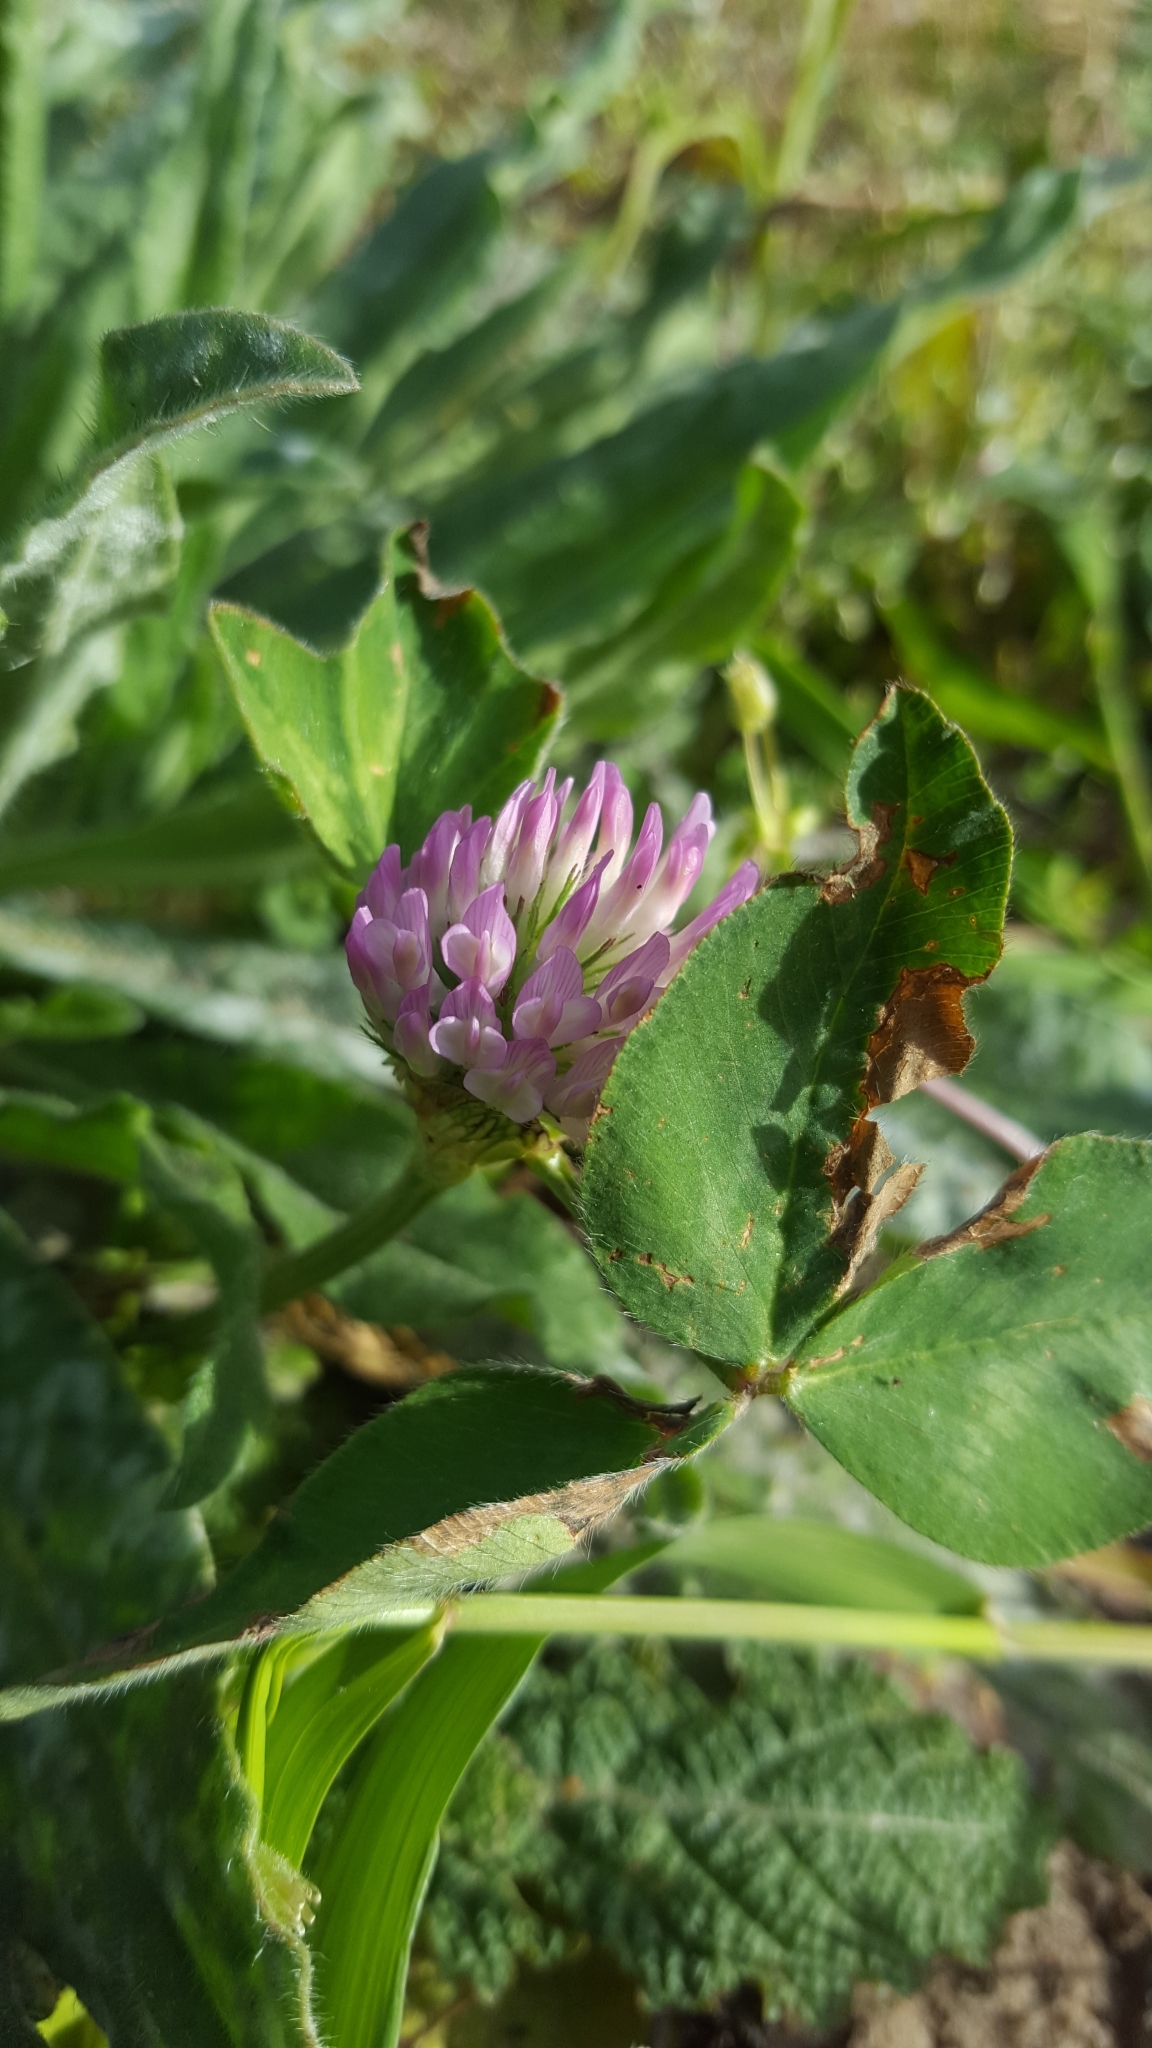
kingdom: Plantae
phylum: Tracheophyta
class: Magnoliopsida
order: Fabales
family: Fabaceae
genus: Trifolium
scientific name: Trifolium pratense
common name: Red clover
